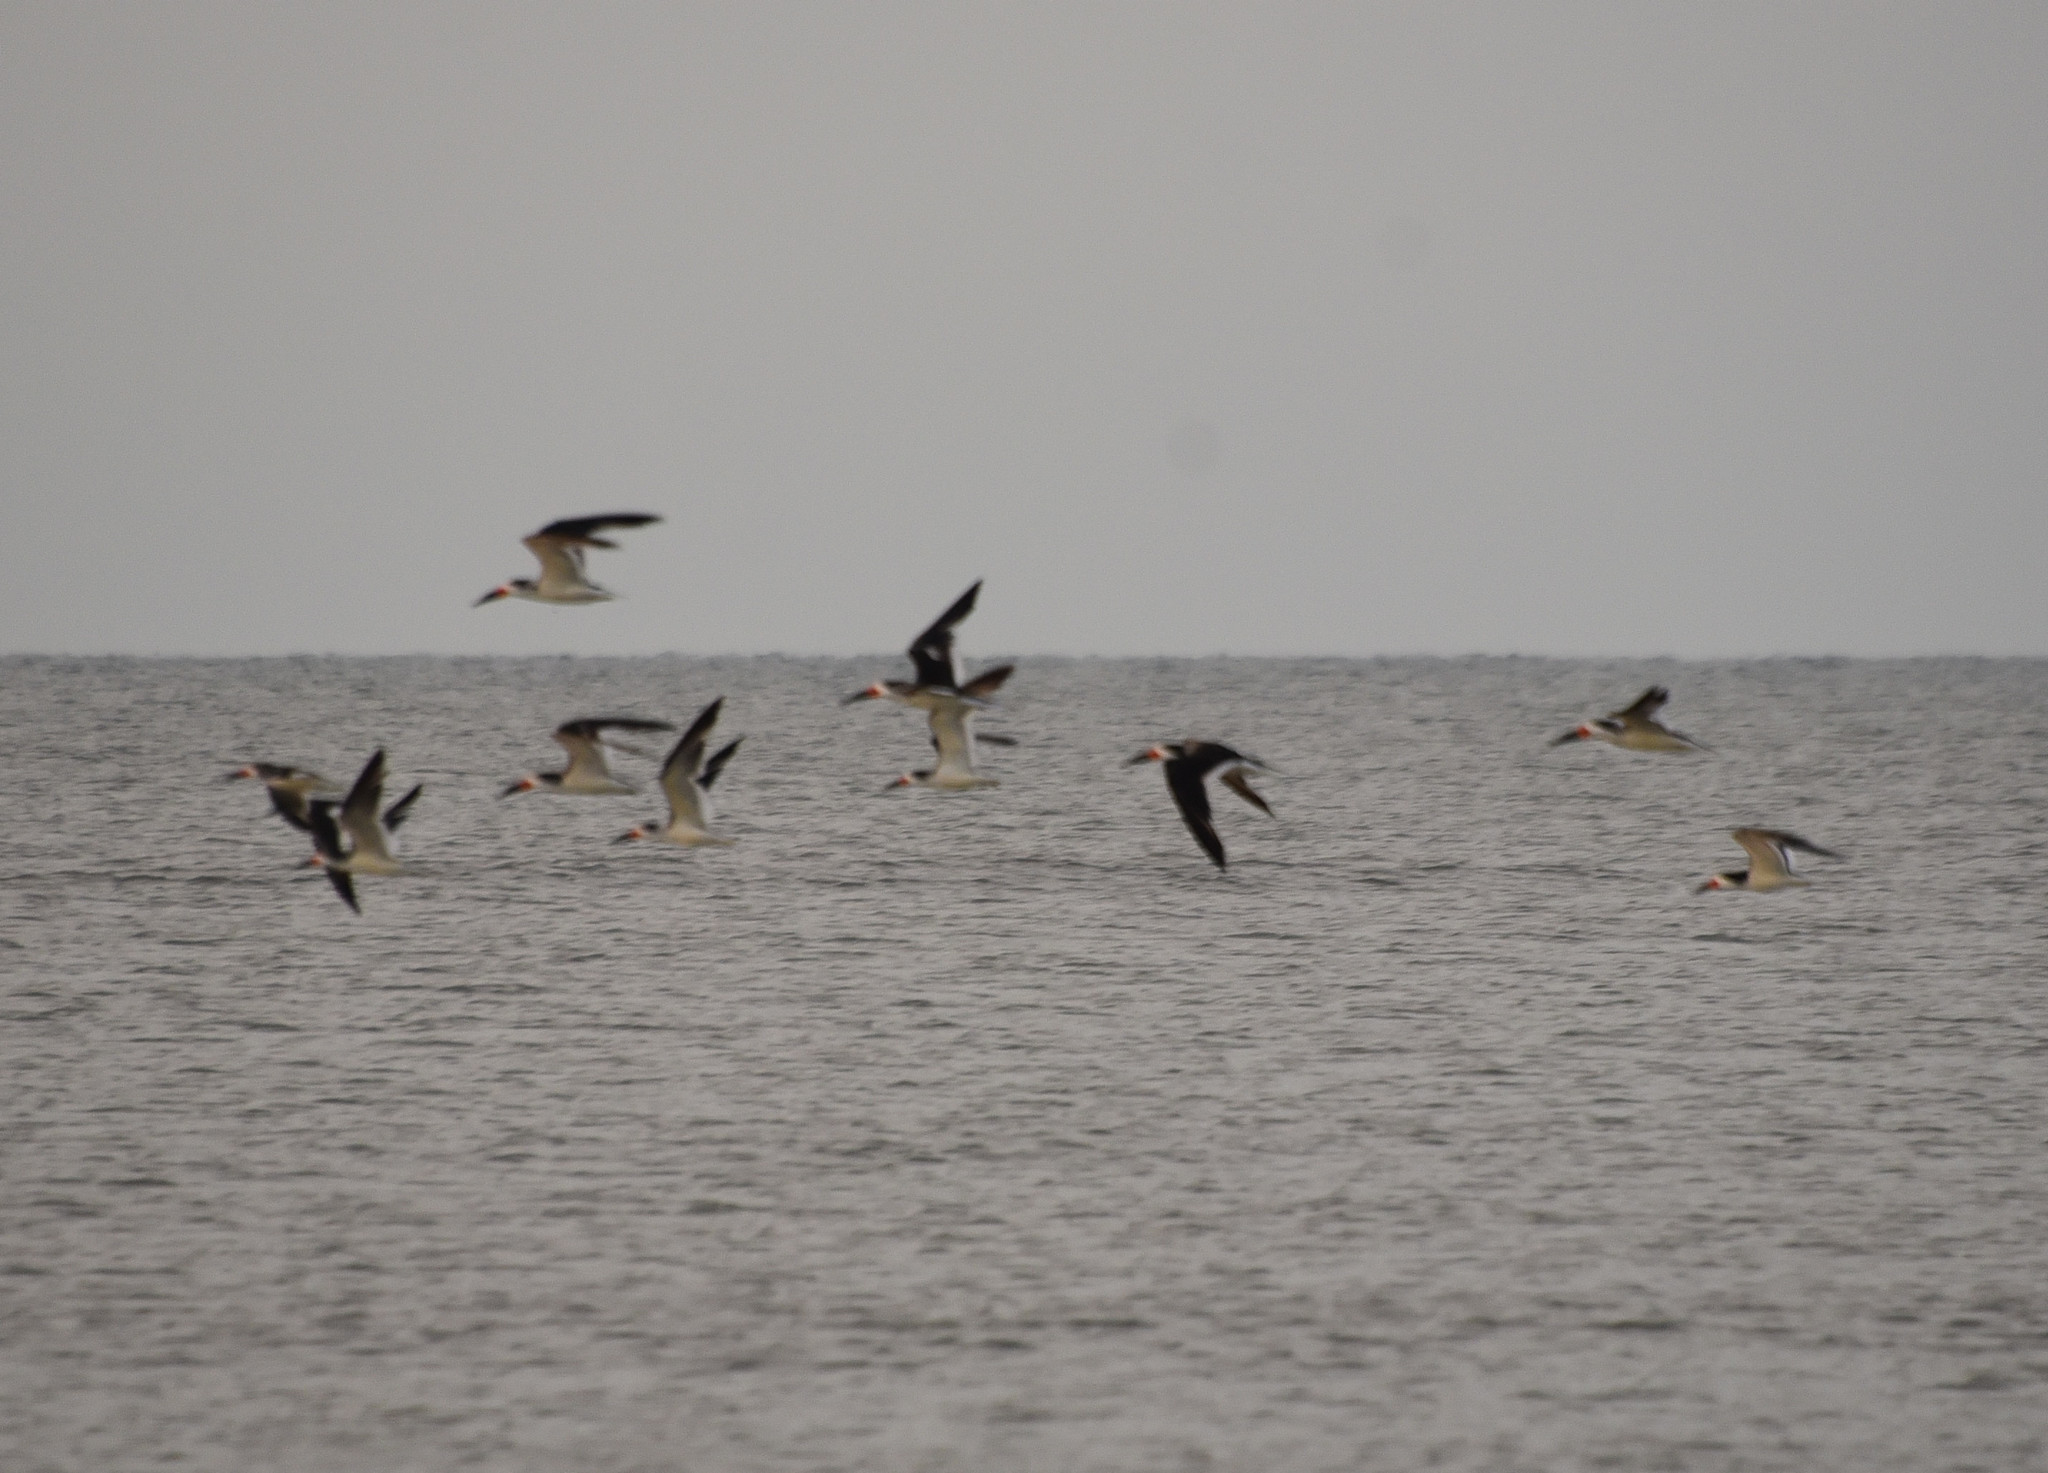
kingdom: Animalia
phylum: Chordata
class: Aves
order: Charadriiformes
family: Laridae
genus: Rynchops
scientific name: Rynchops niger
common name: Black skimmer
